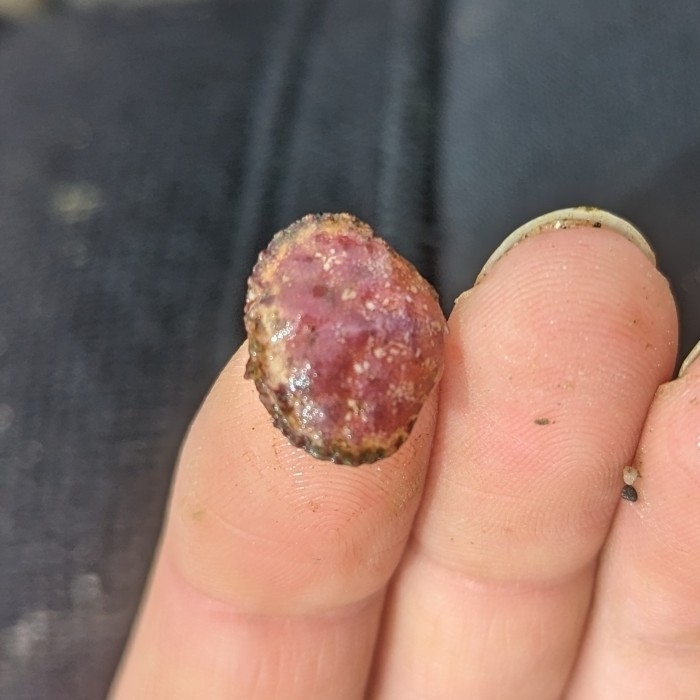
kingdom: Animalia
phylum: Arthropoda
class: Malacostraca
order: Decapoda
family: Cancridae
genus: Glebocarcinus
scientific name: Glebocarcinus oregonensis
